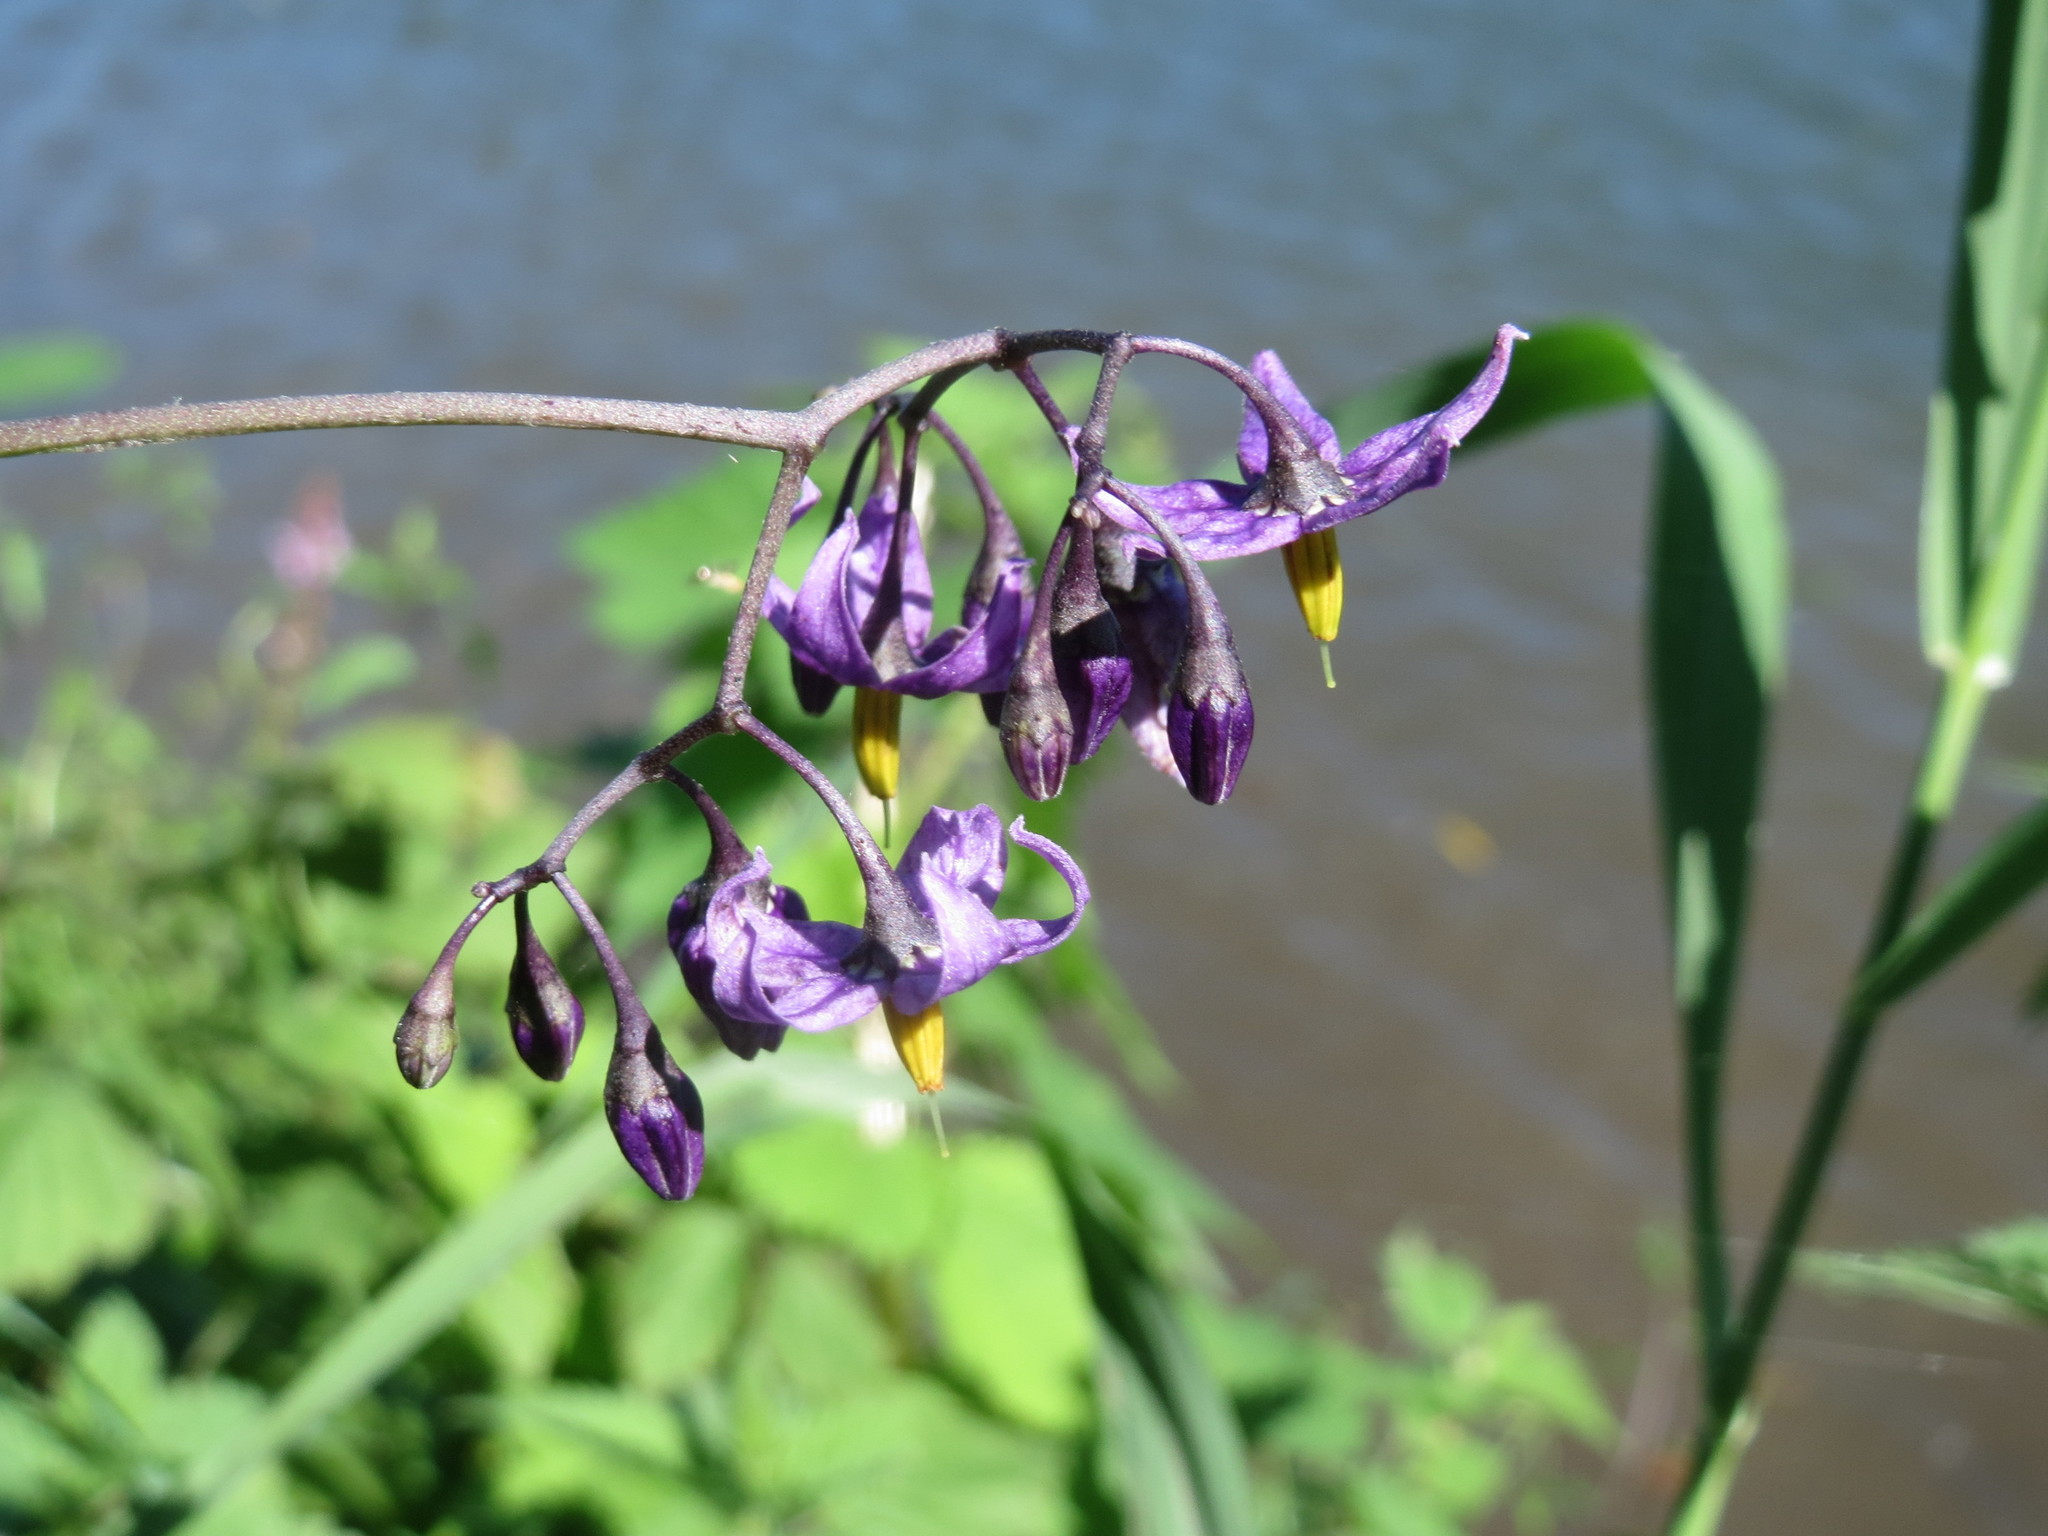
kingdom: Plantae
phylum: Tracheophyta
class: Magnoliopsida
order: Solanales
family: Solanaceae
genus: Solanum
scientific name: Solanum dulcamara
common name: Climbing nightshade
